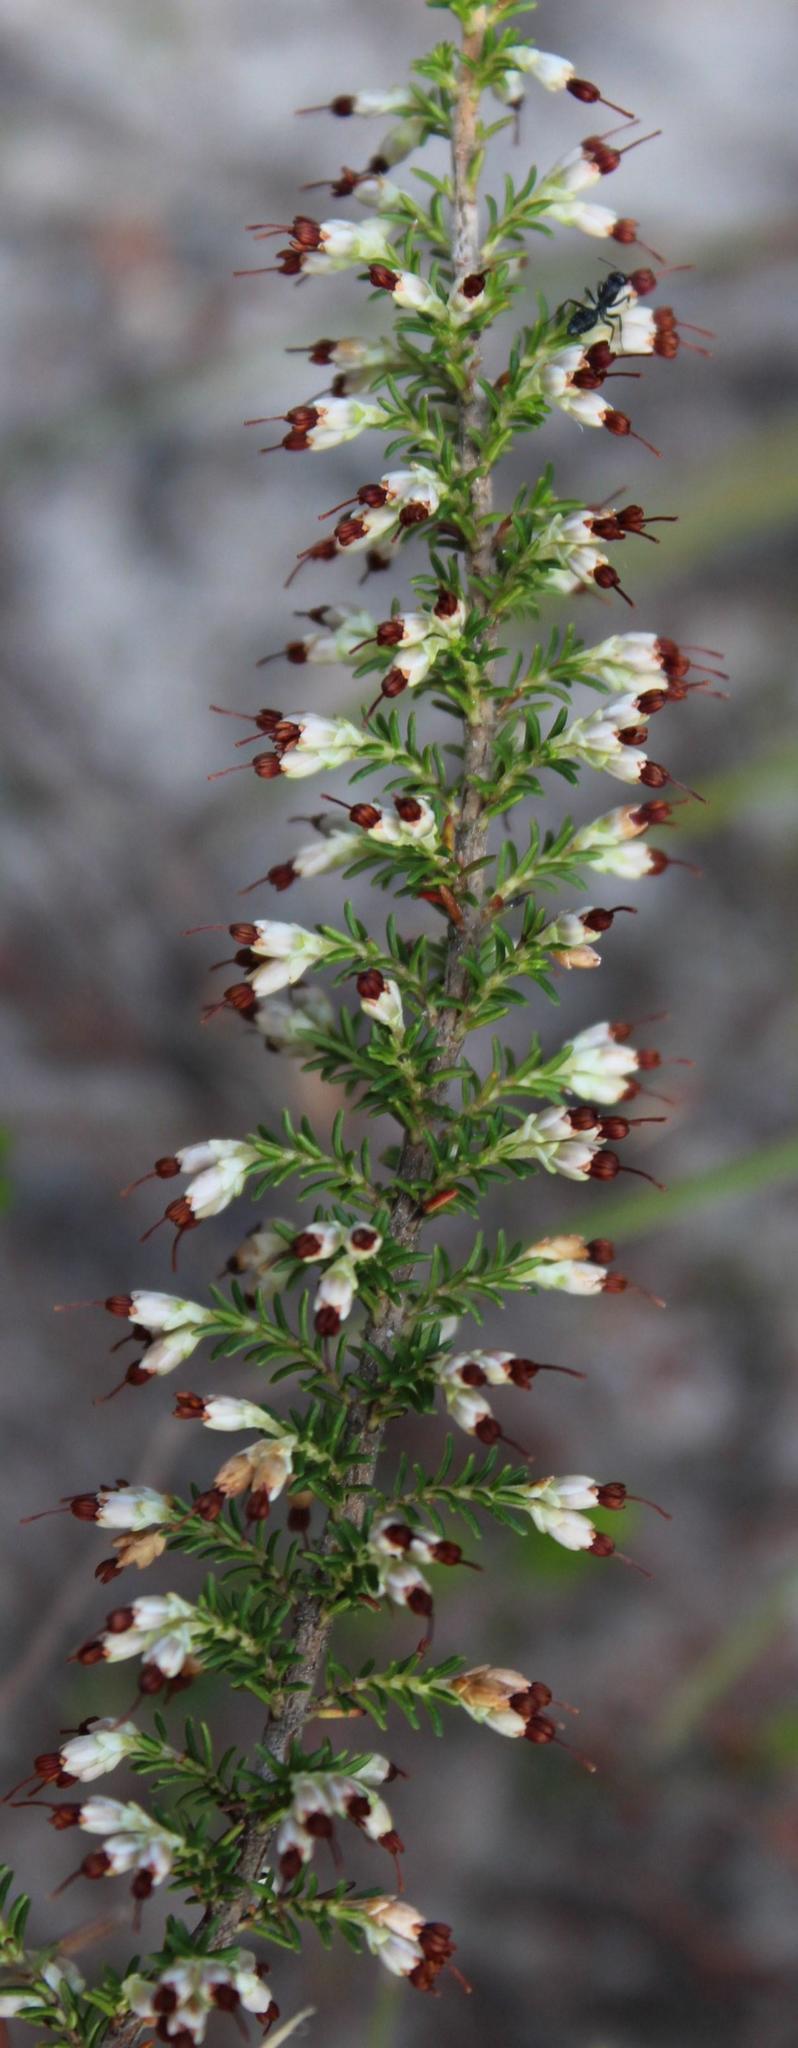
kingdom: Plantae
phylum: Tracheophyta
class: Magnoliopsida
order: Ericales
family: Ericaceae
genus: Erica
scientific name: Erica imbricata
